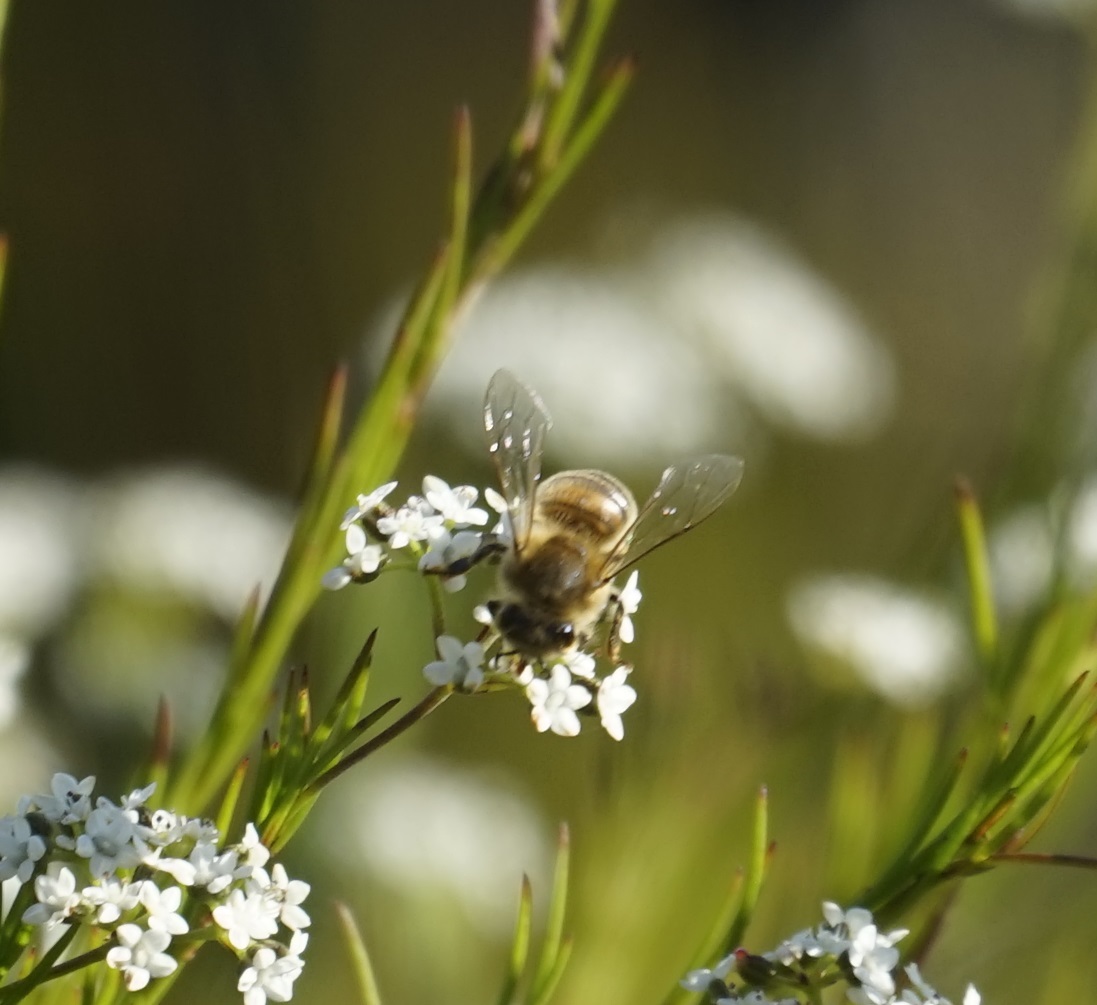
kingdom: Animalia
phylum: Arthropoda
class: Insecta
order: Hymenoptera
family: Apidae
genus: Apis
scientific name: Apis mellifera
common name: Honey bee
